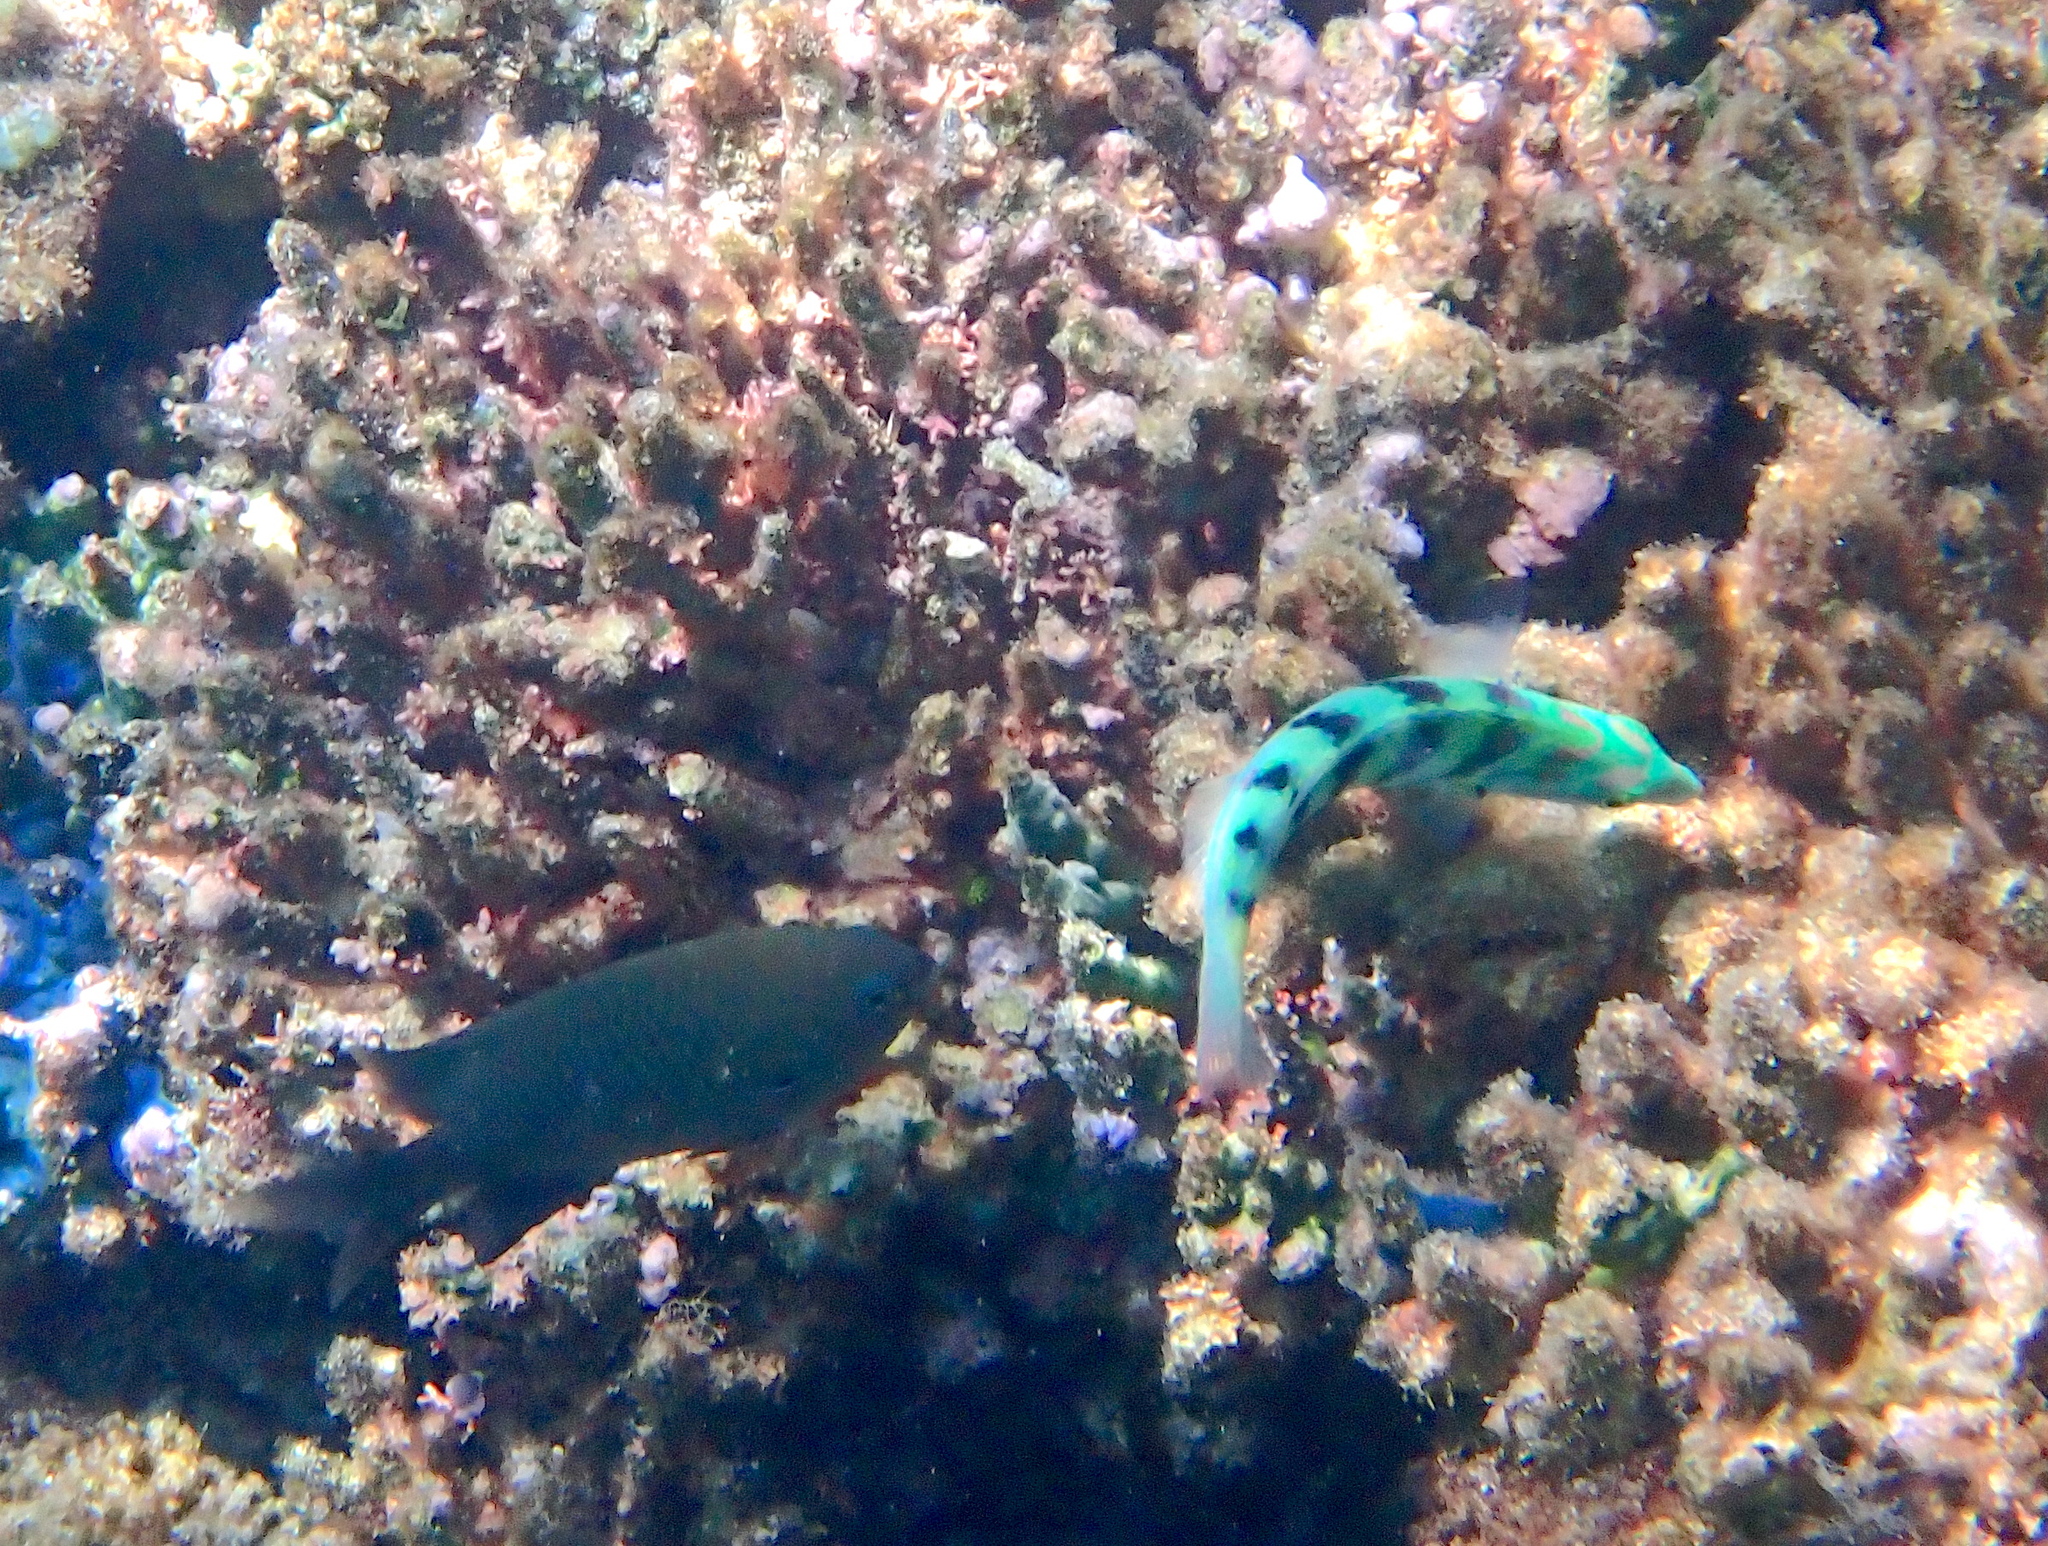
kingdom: Animalia
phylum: Chordata
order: Perciformes
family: Labridae
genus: Thalassoma
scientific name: Thalassoma hardwicke
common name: Sixbar wrasse
